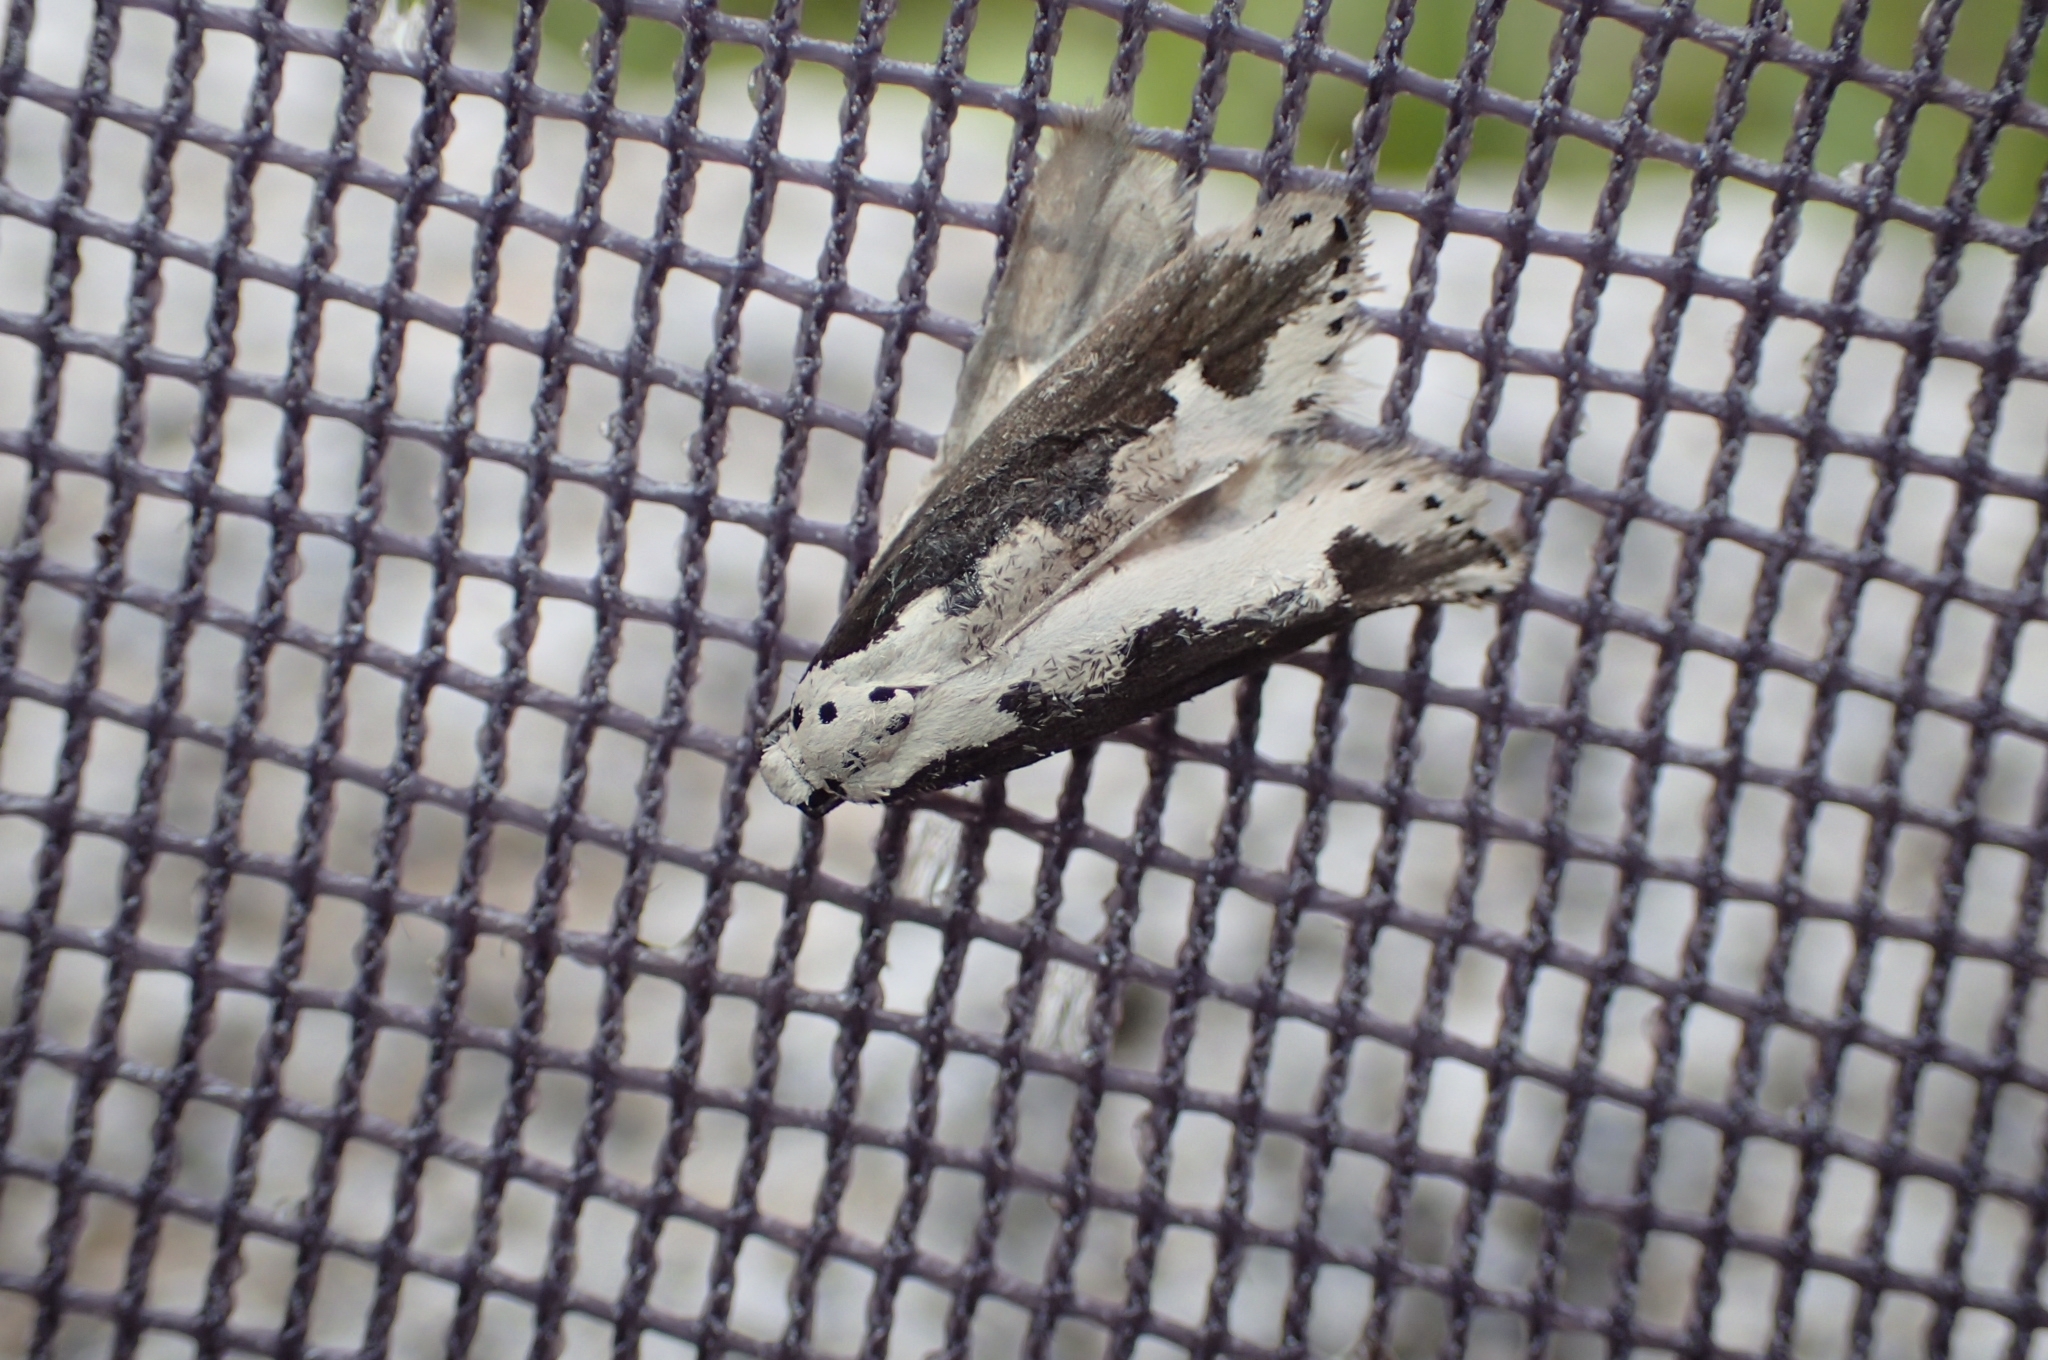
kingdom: Animalia
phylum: Arthropoda
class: Insecta
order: Lepidoptera
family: Ethmiidae
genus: Ethmia
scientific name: Ethmia bipunctella
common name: Bordered ermel
